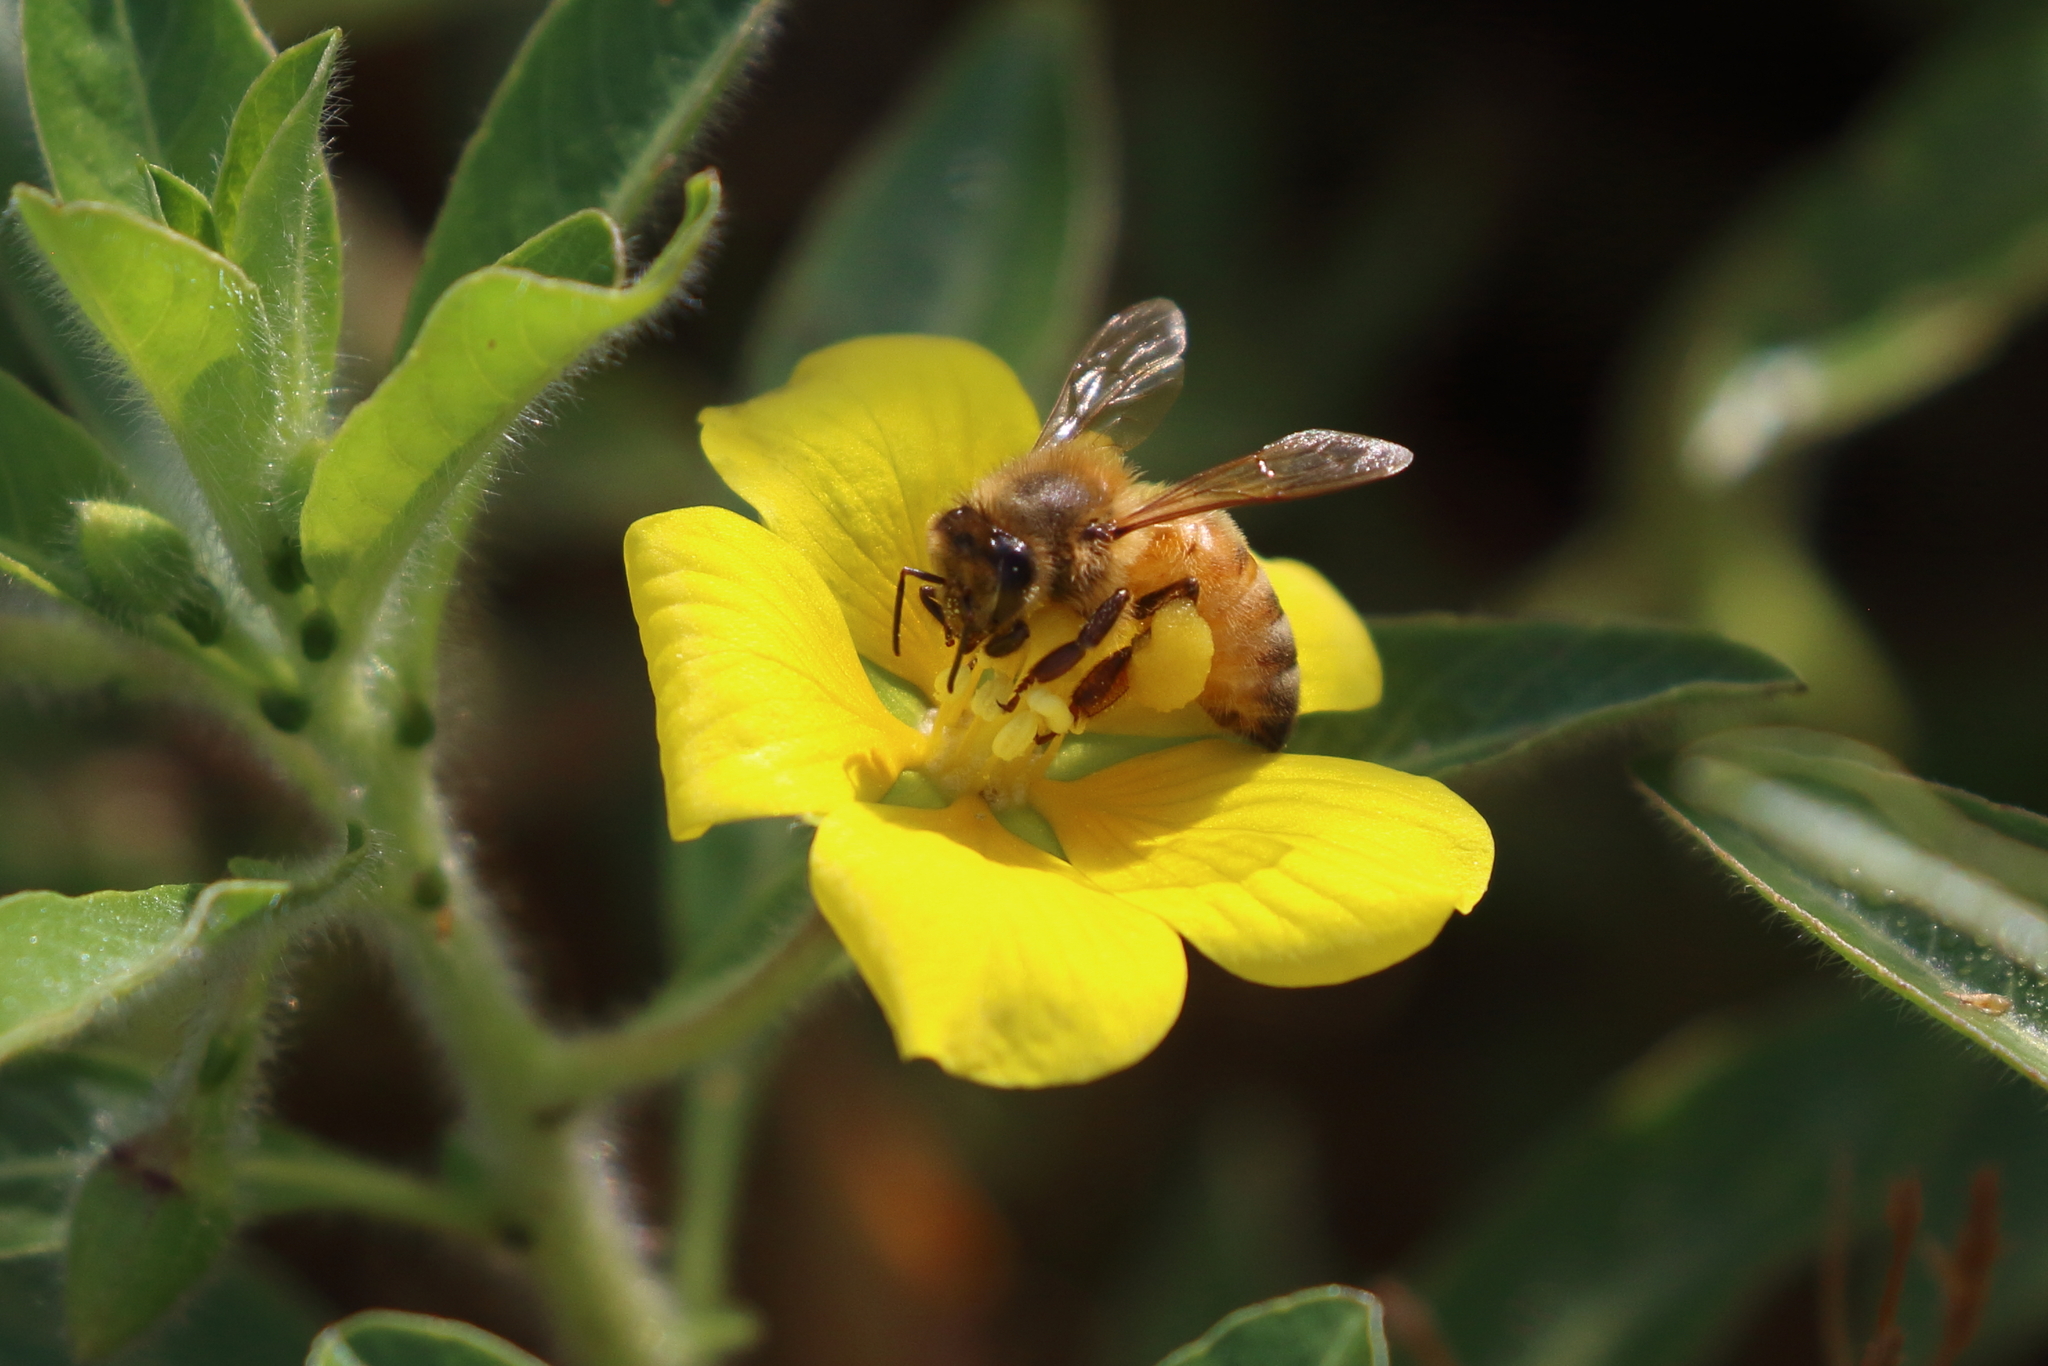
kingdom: Animalia
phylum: Arthropoda
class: Insecta
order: Hymenoptera
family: Apidae
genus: Apis
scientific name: Apis mellifera
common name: Honey bee
